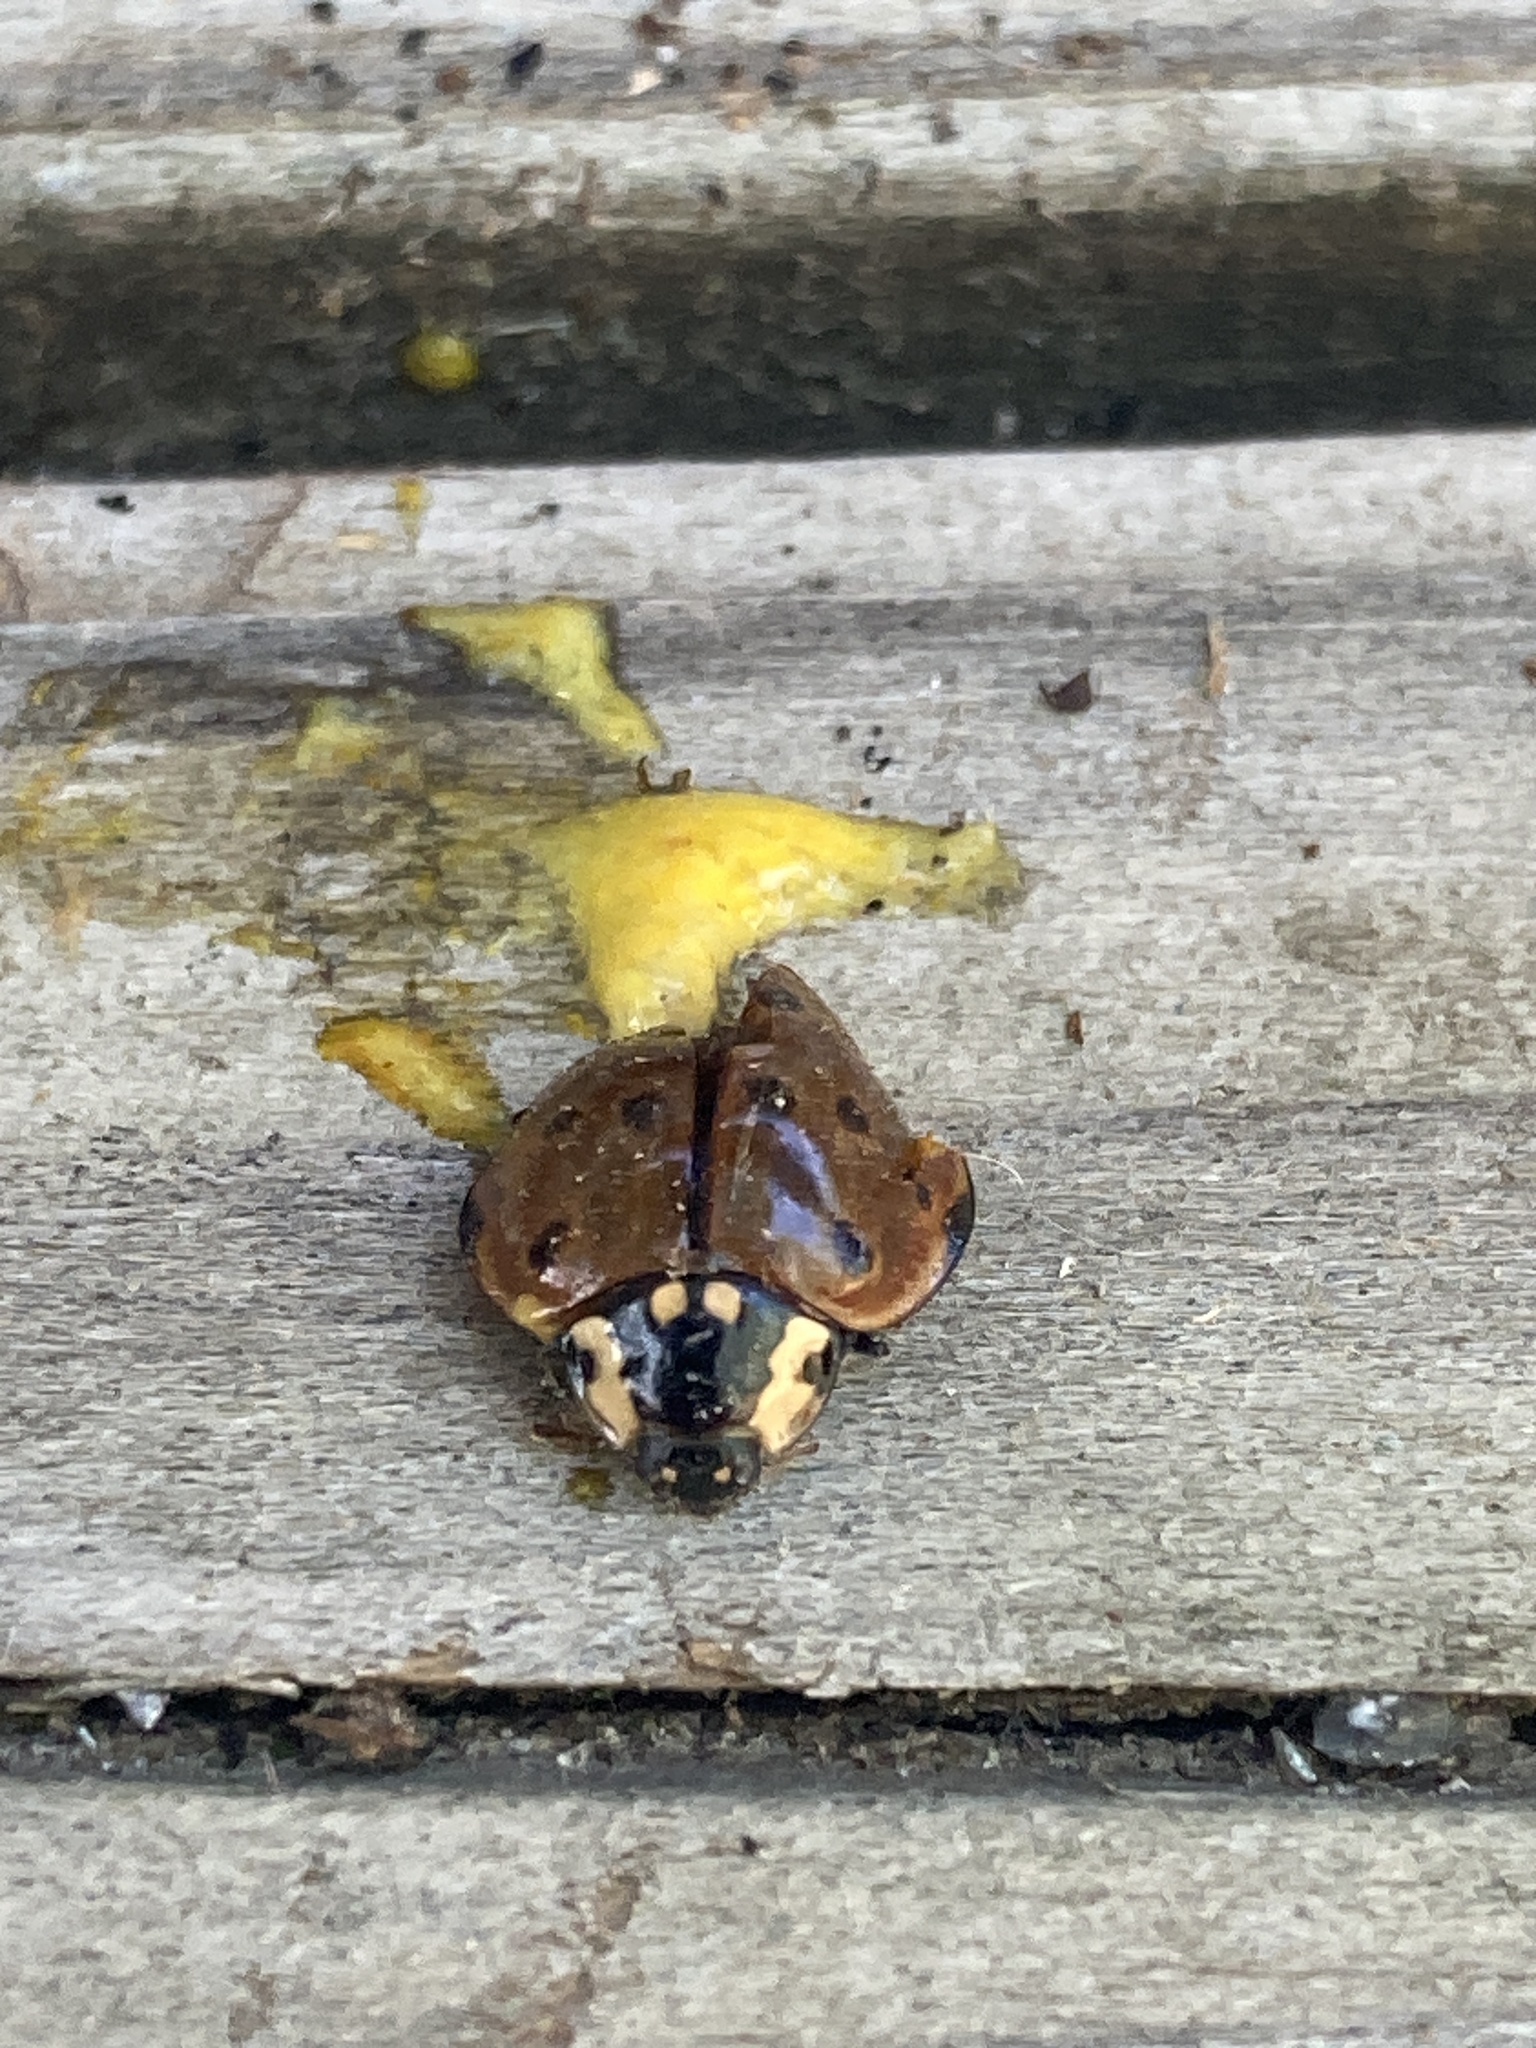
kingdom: Animalia
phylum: Arthropoda
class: Insecta
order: Coleoptera
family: Coccinellidae
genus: Anatis
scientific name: Anatis rathvoni
